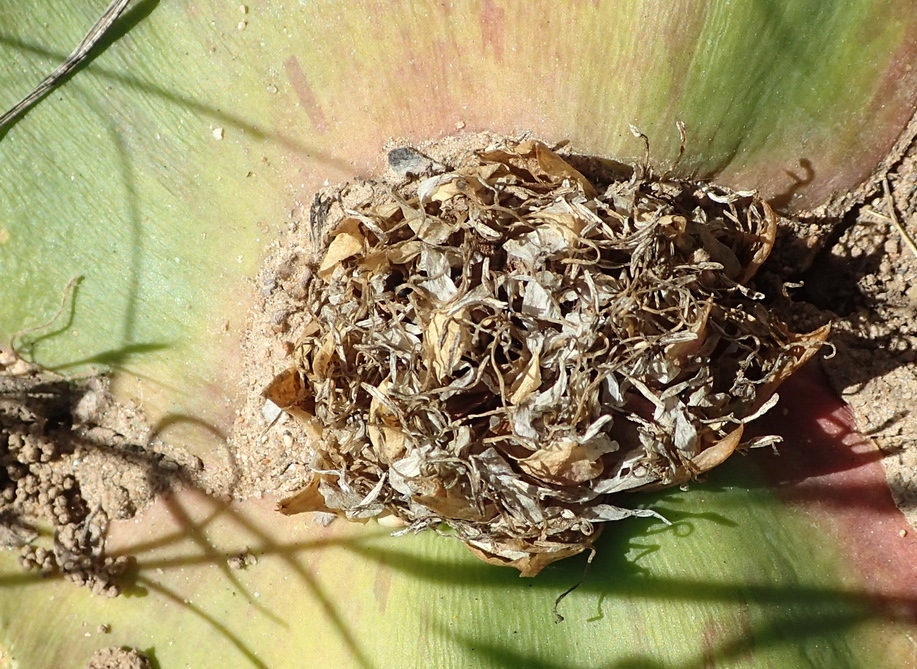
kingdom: Plantae
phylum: Tracheophyta
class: Liliopsida
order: Asparagales
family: Asparagaceae
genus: Massonia
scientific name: Massonia depressa
